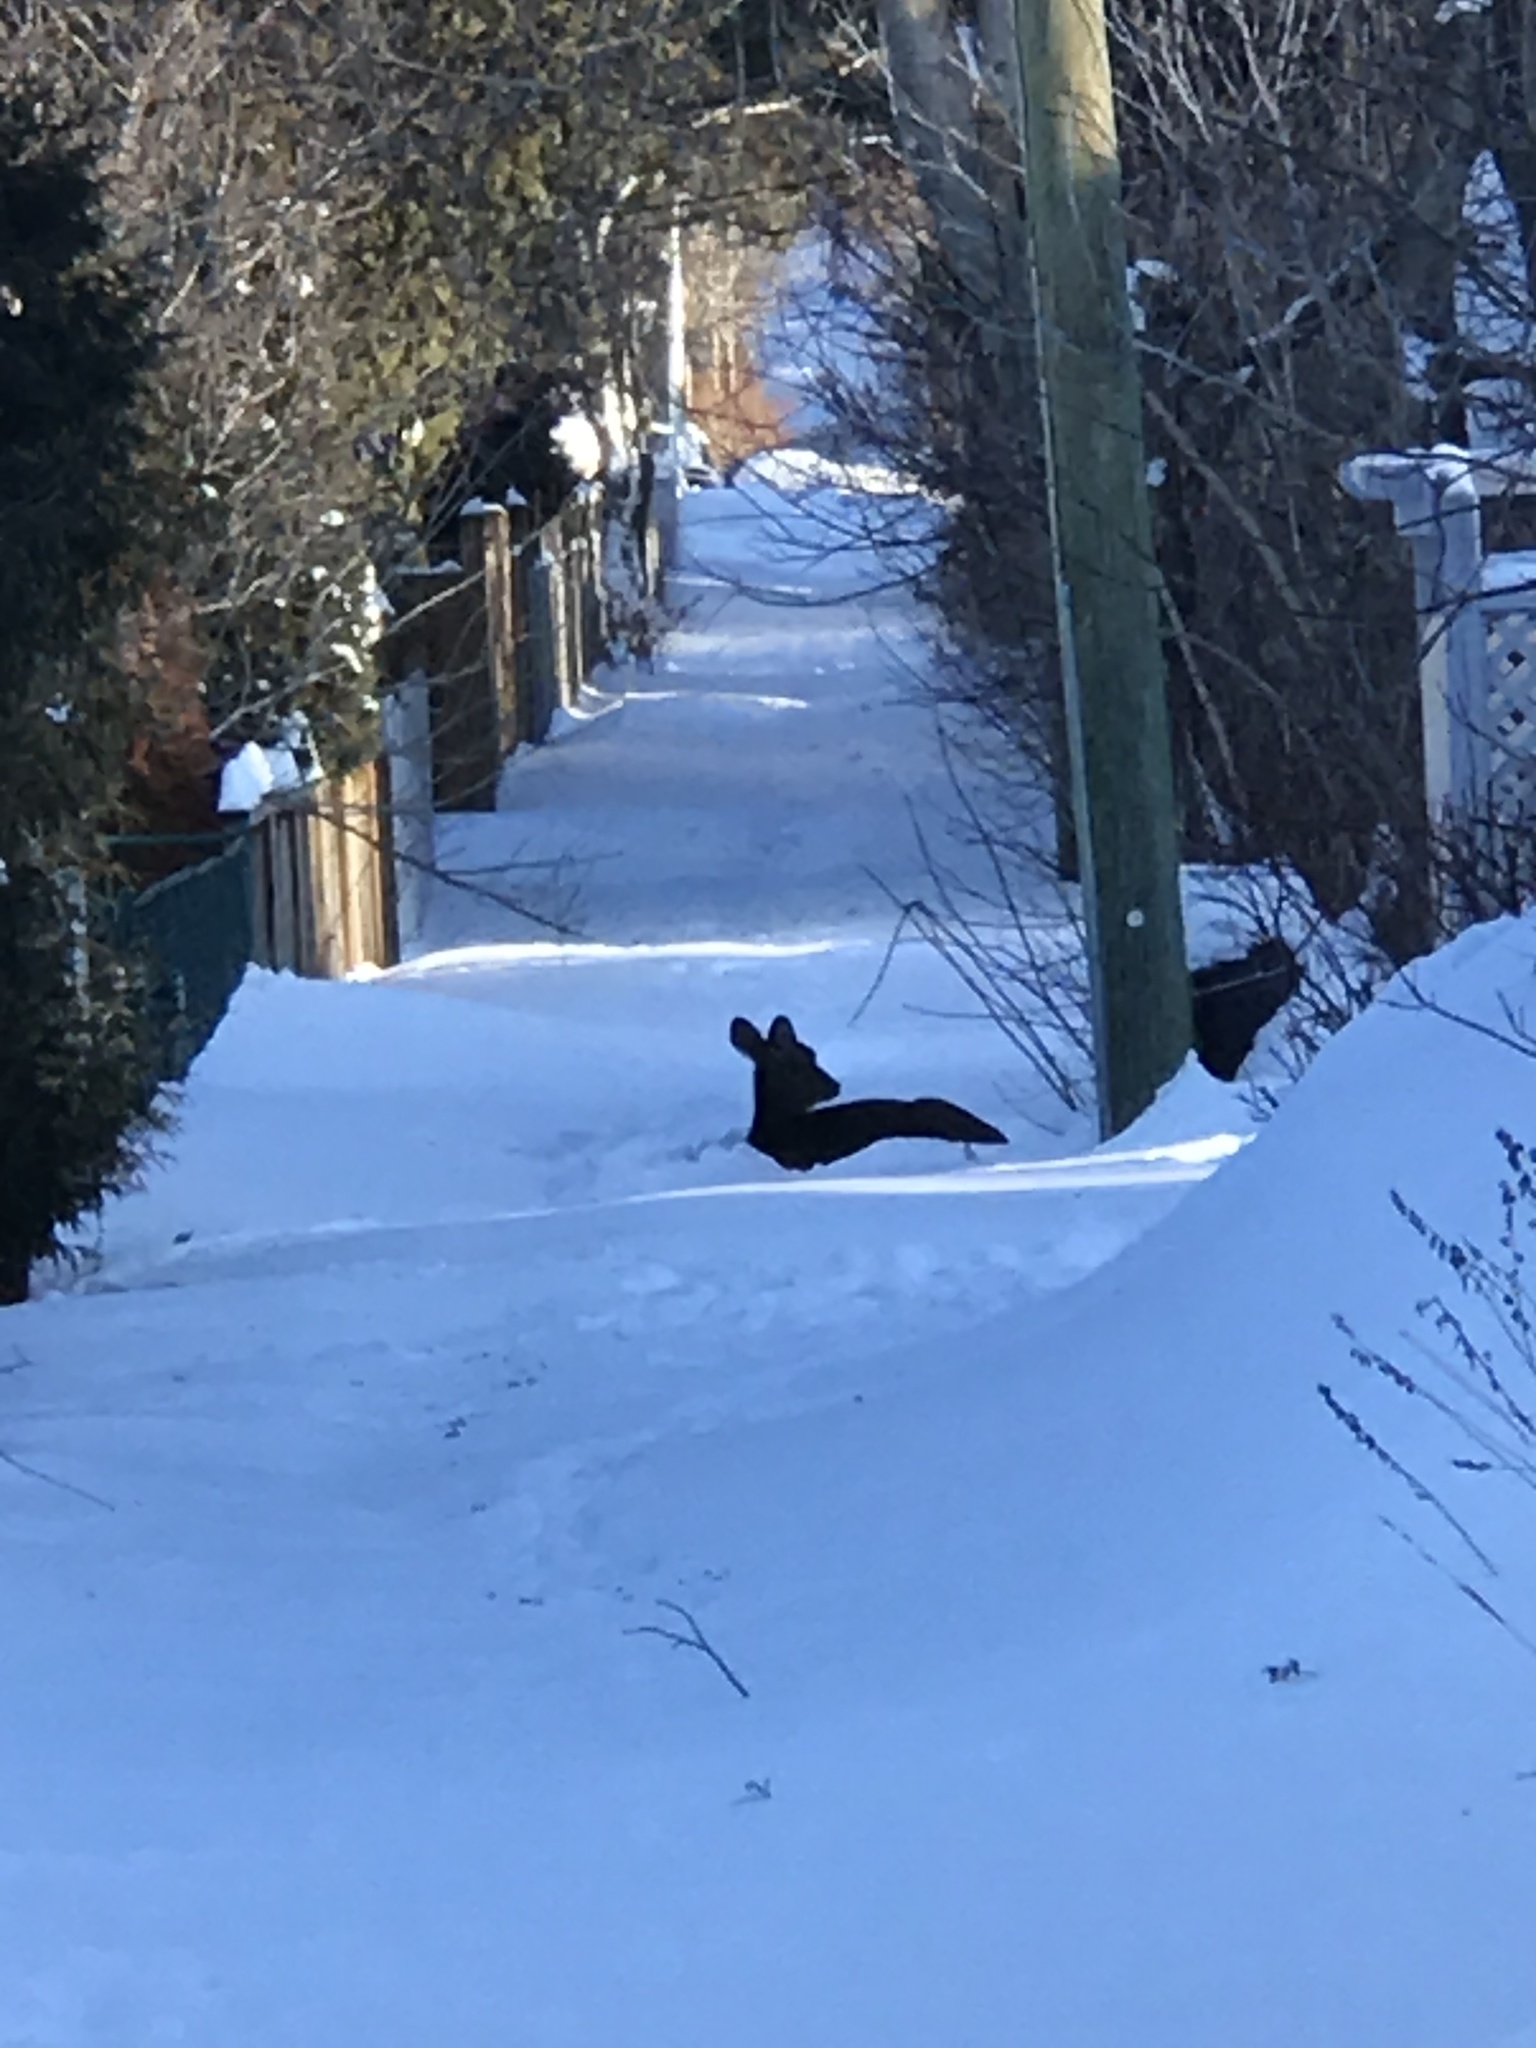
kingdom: Animalia
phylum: Chordata
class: Mammalia
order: Artiodactyla
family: Cervidae
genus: Odocoileus
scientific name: Odocoileus virginianus
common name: White-tailed deer
